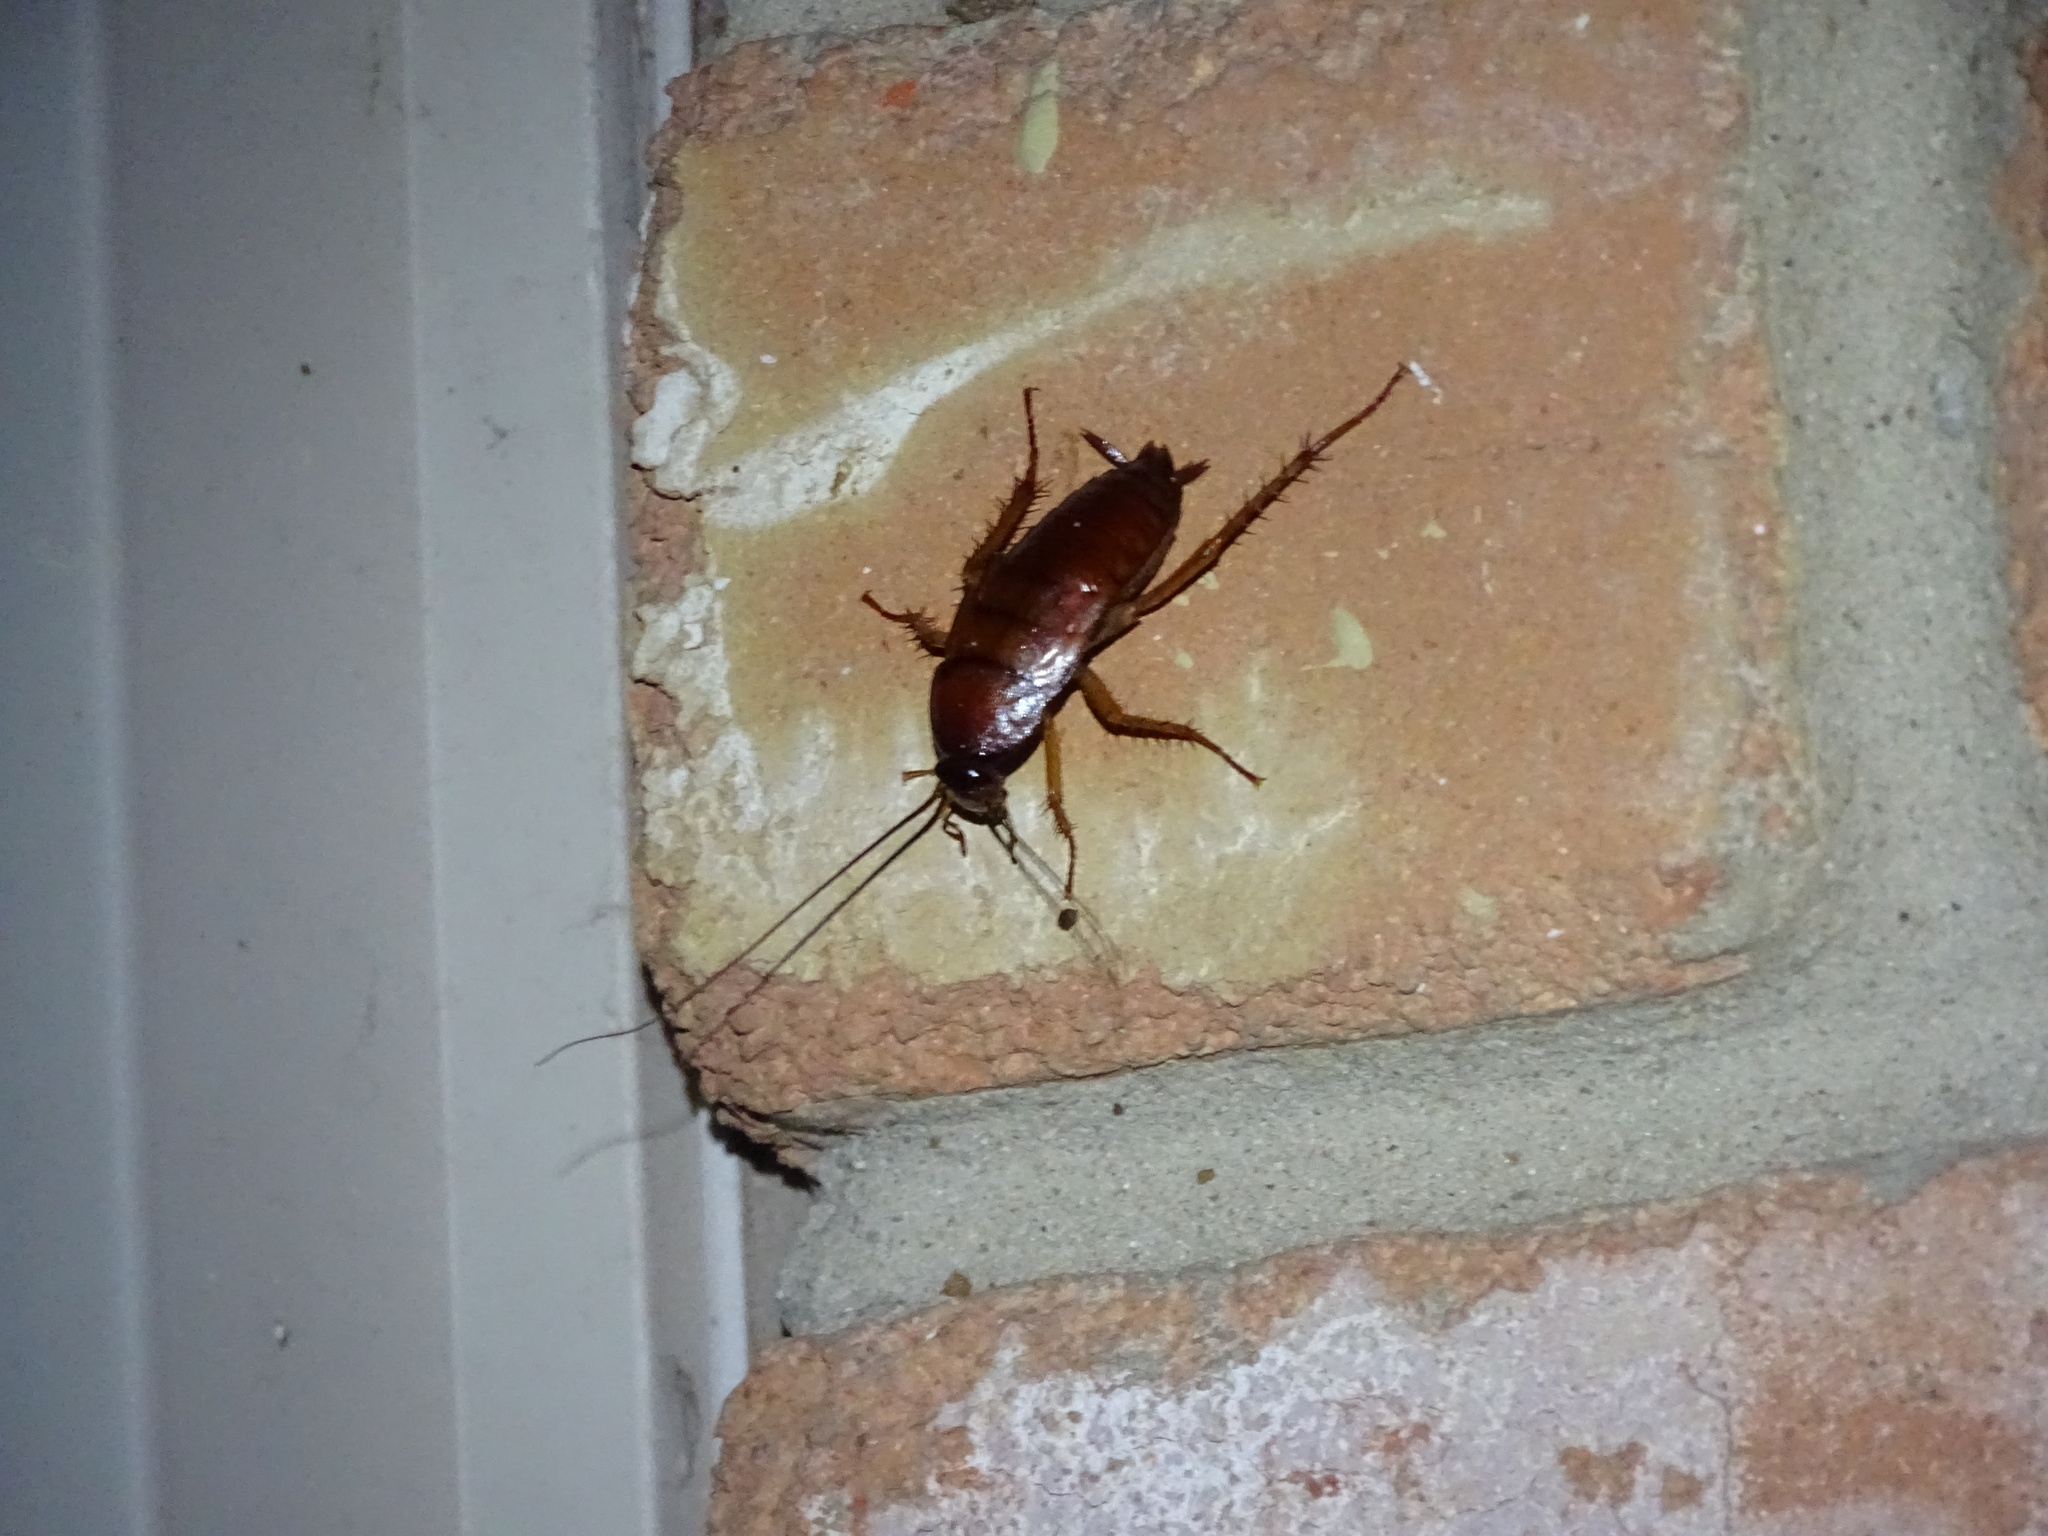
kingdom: Animalia
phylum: Arthropoda
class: Insecta
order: Blattodea
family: Blattidae
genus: Periplaneta
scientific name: Periplaneta fuliginosa
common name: Smokeybrown cockroad
